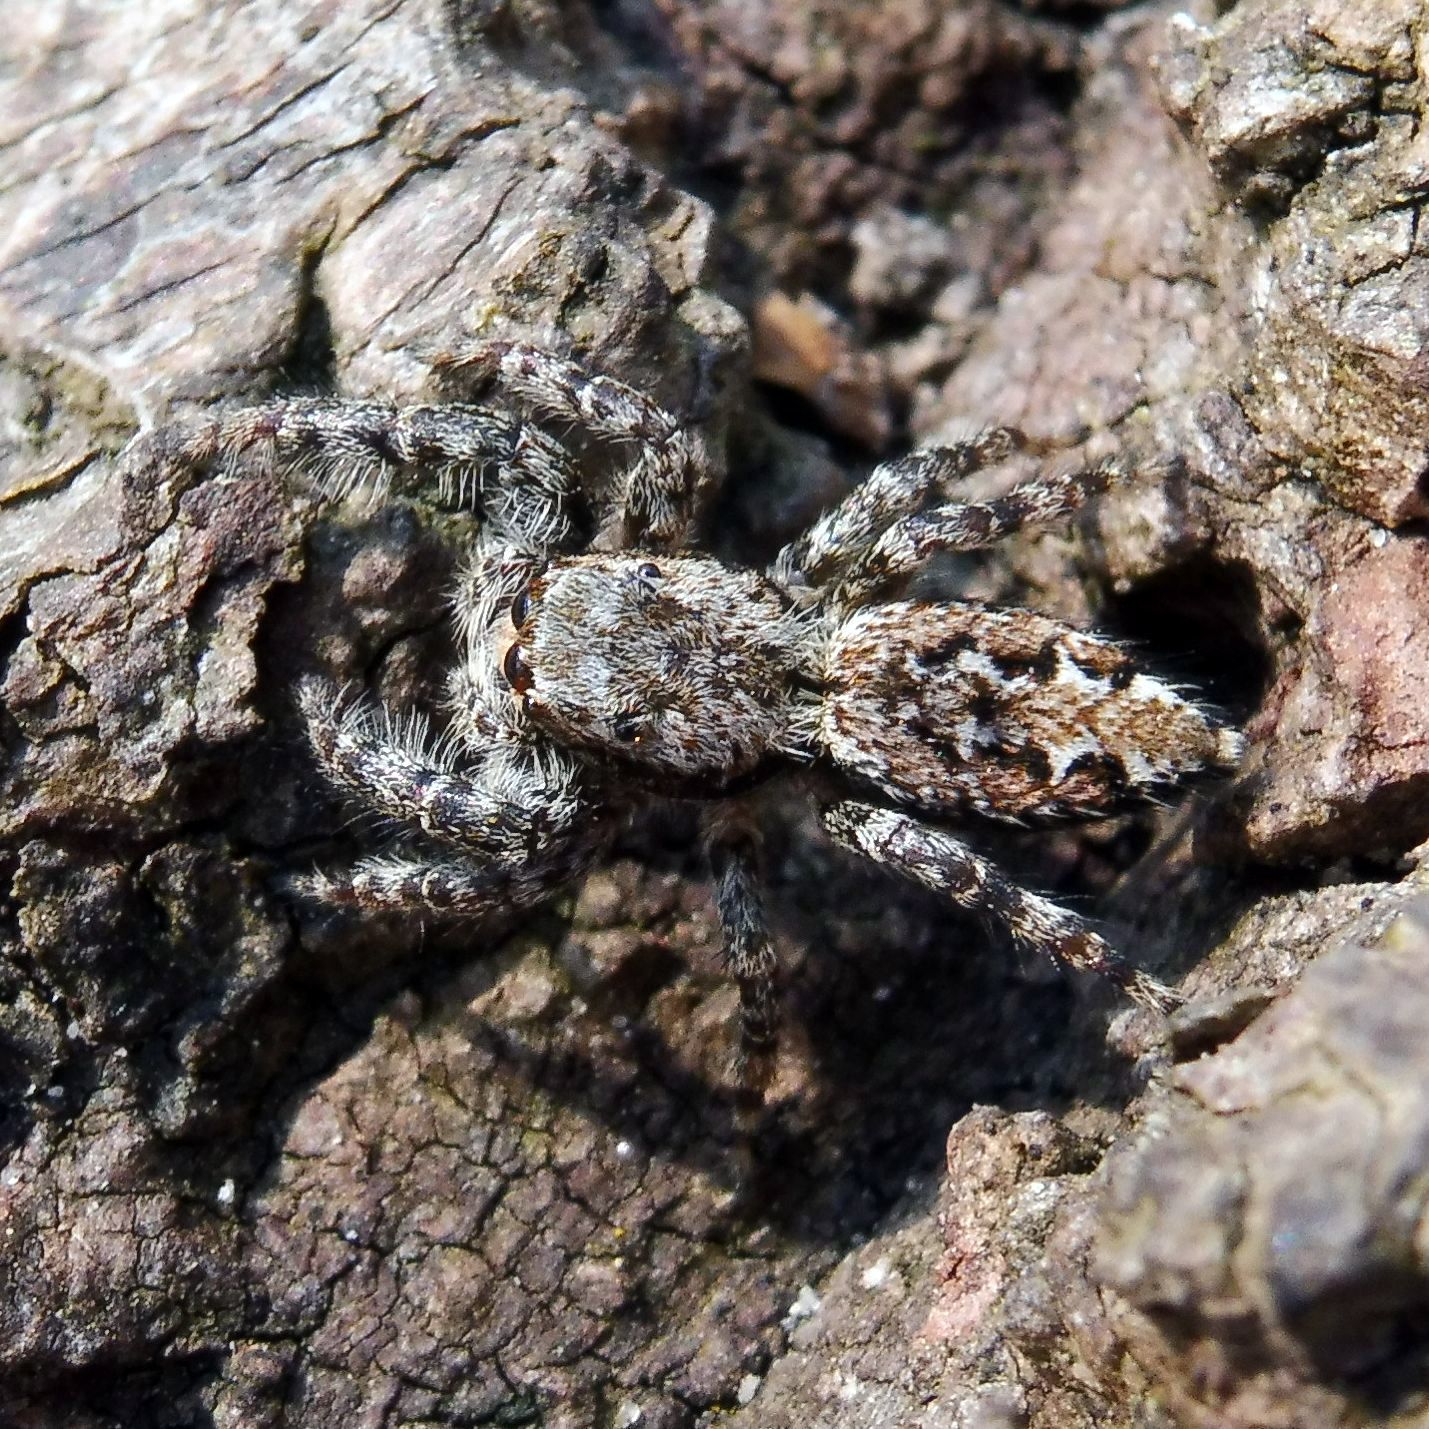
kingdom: Animalia
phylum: Arthropoda
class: Arachnida
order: Araneae
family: Salticidae
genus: Marpissa
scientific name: Marpissa muscosa
